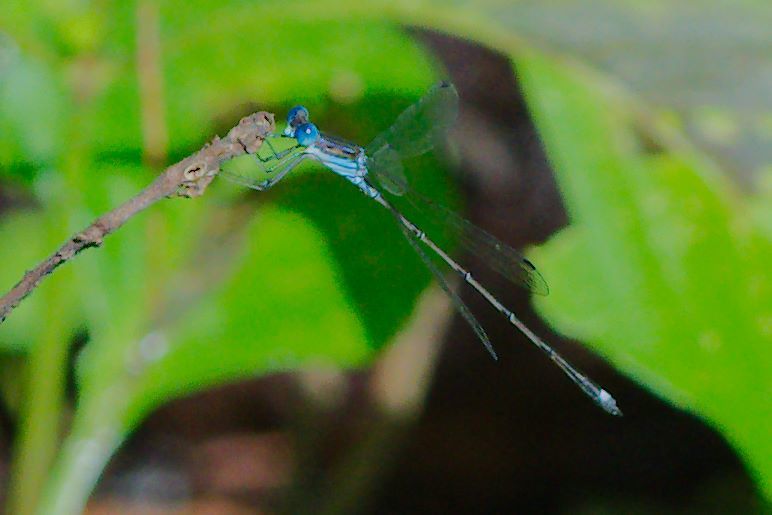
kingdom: Animalia
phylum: Arthropoda
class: Insecta
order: Odonata
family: Lestidae
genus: Lestes
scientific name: Lestes tenuatus
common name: Blue-striped spreadwing
